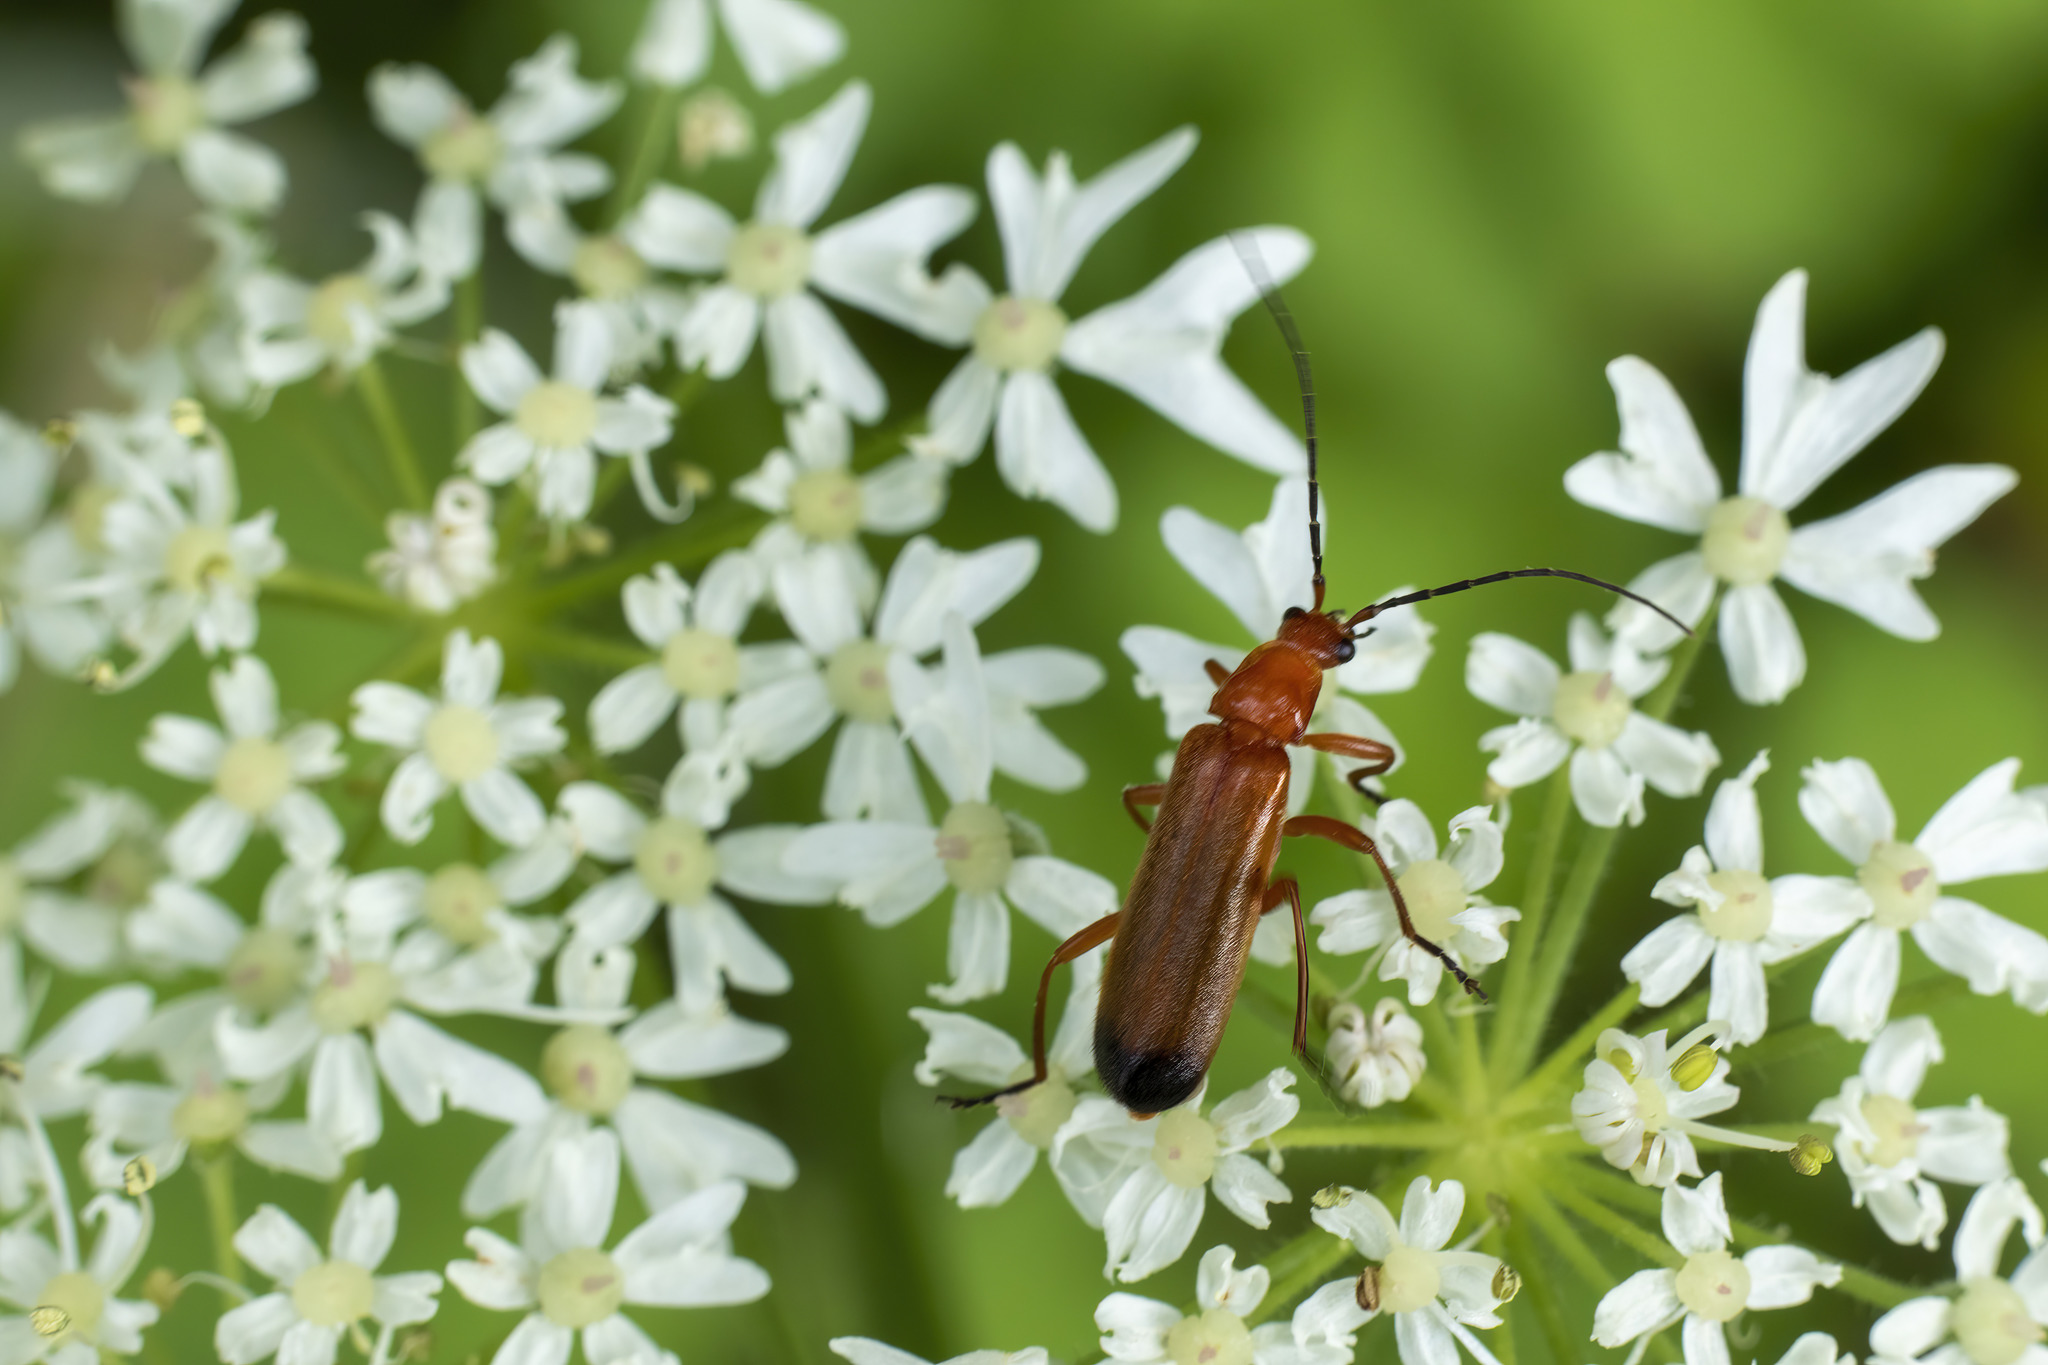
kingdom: Animalia
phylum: Arthropoda
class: Insecta
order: Coleoptera
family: Cantharidae
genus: Rhagonycha
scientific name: Rhagonycha fulva
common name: Common red soldier beetle
